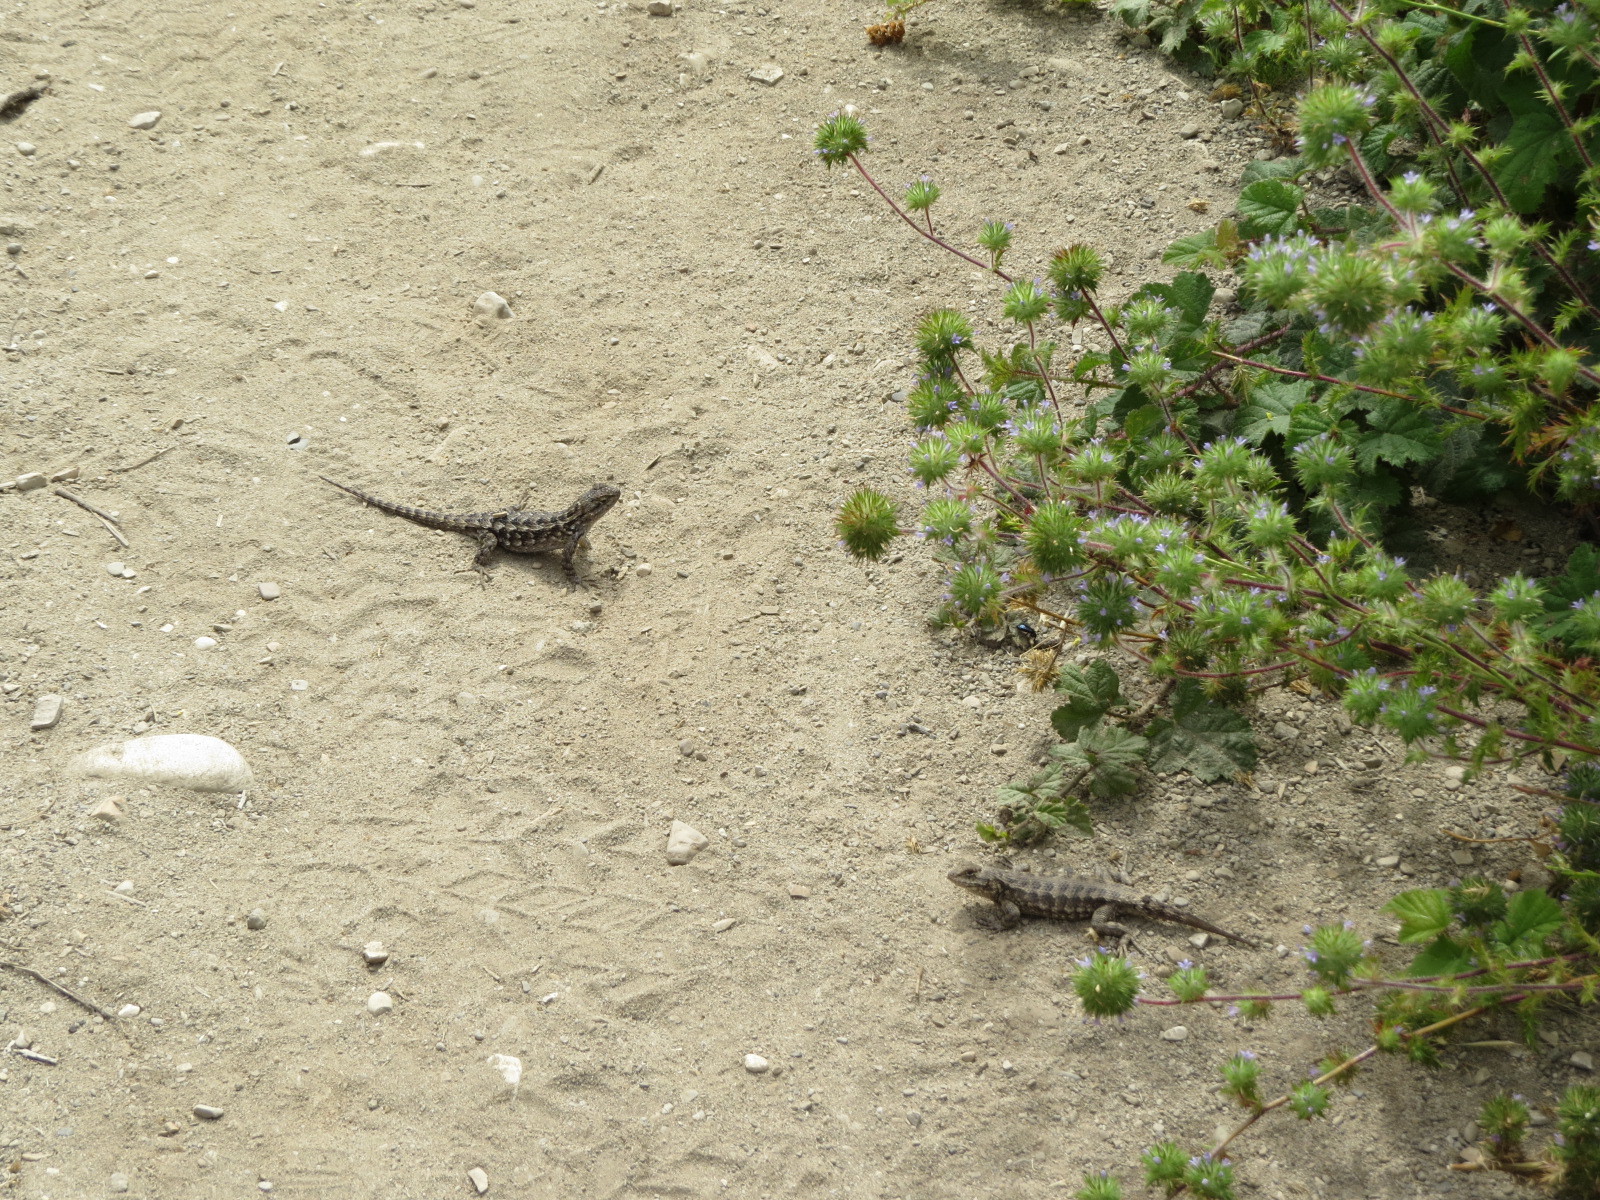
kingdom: Animalia
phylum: Chordata
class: Squamata
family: Phrynosomatidae
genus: Sceloporus
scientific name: Sceloporus occidentalis
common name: Western fence lizard
